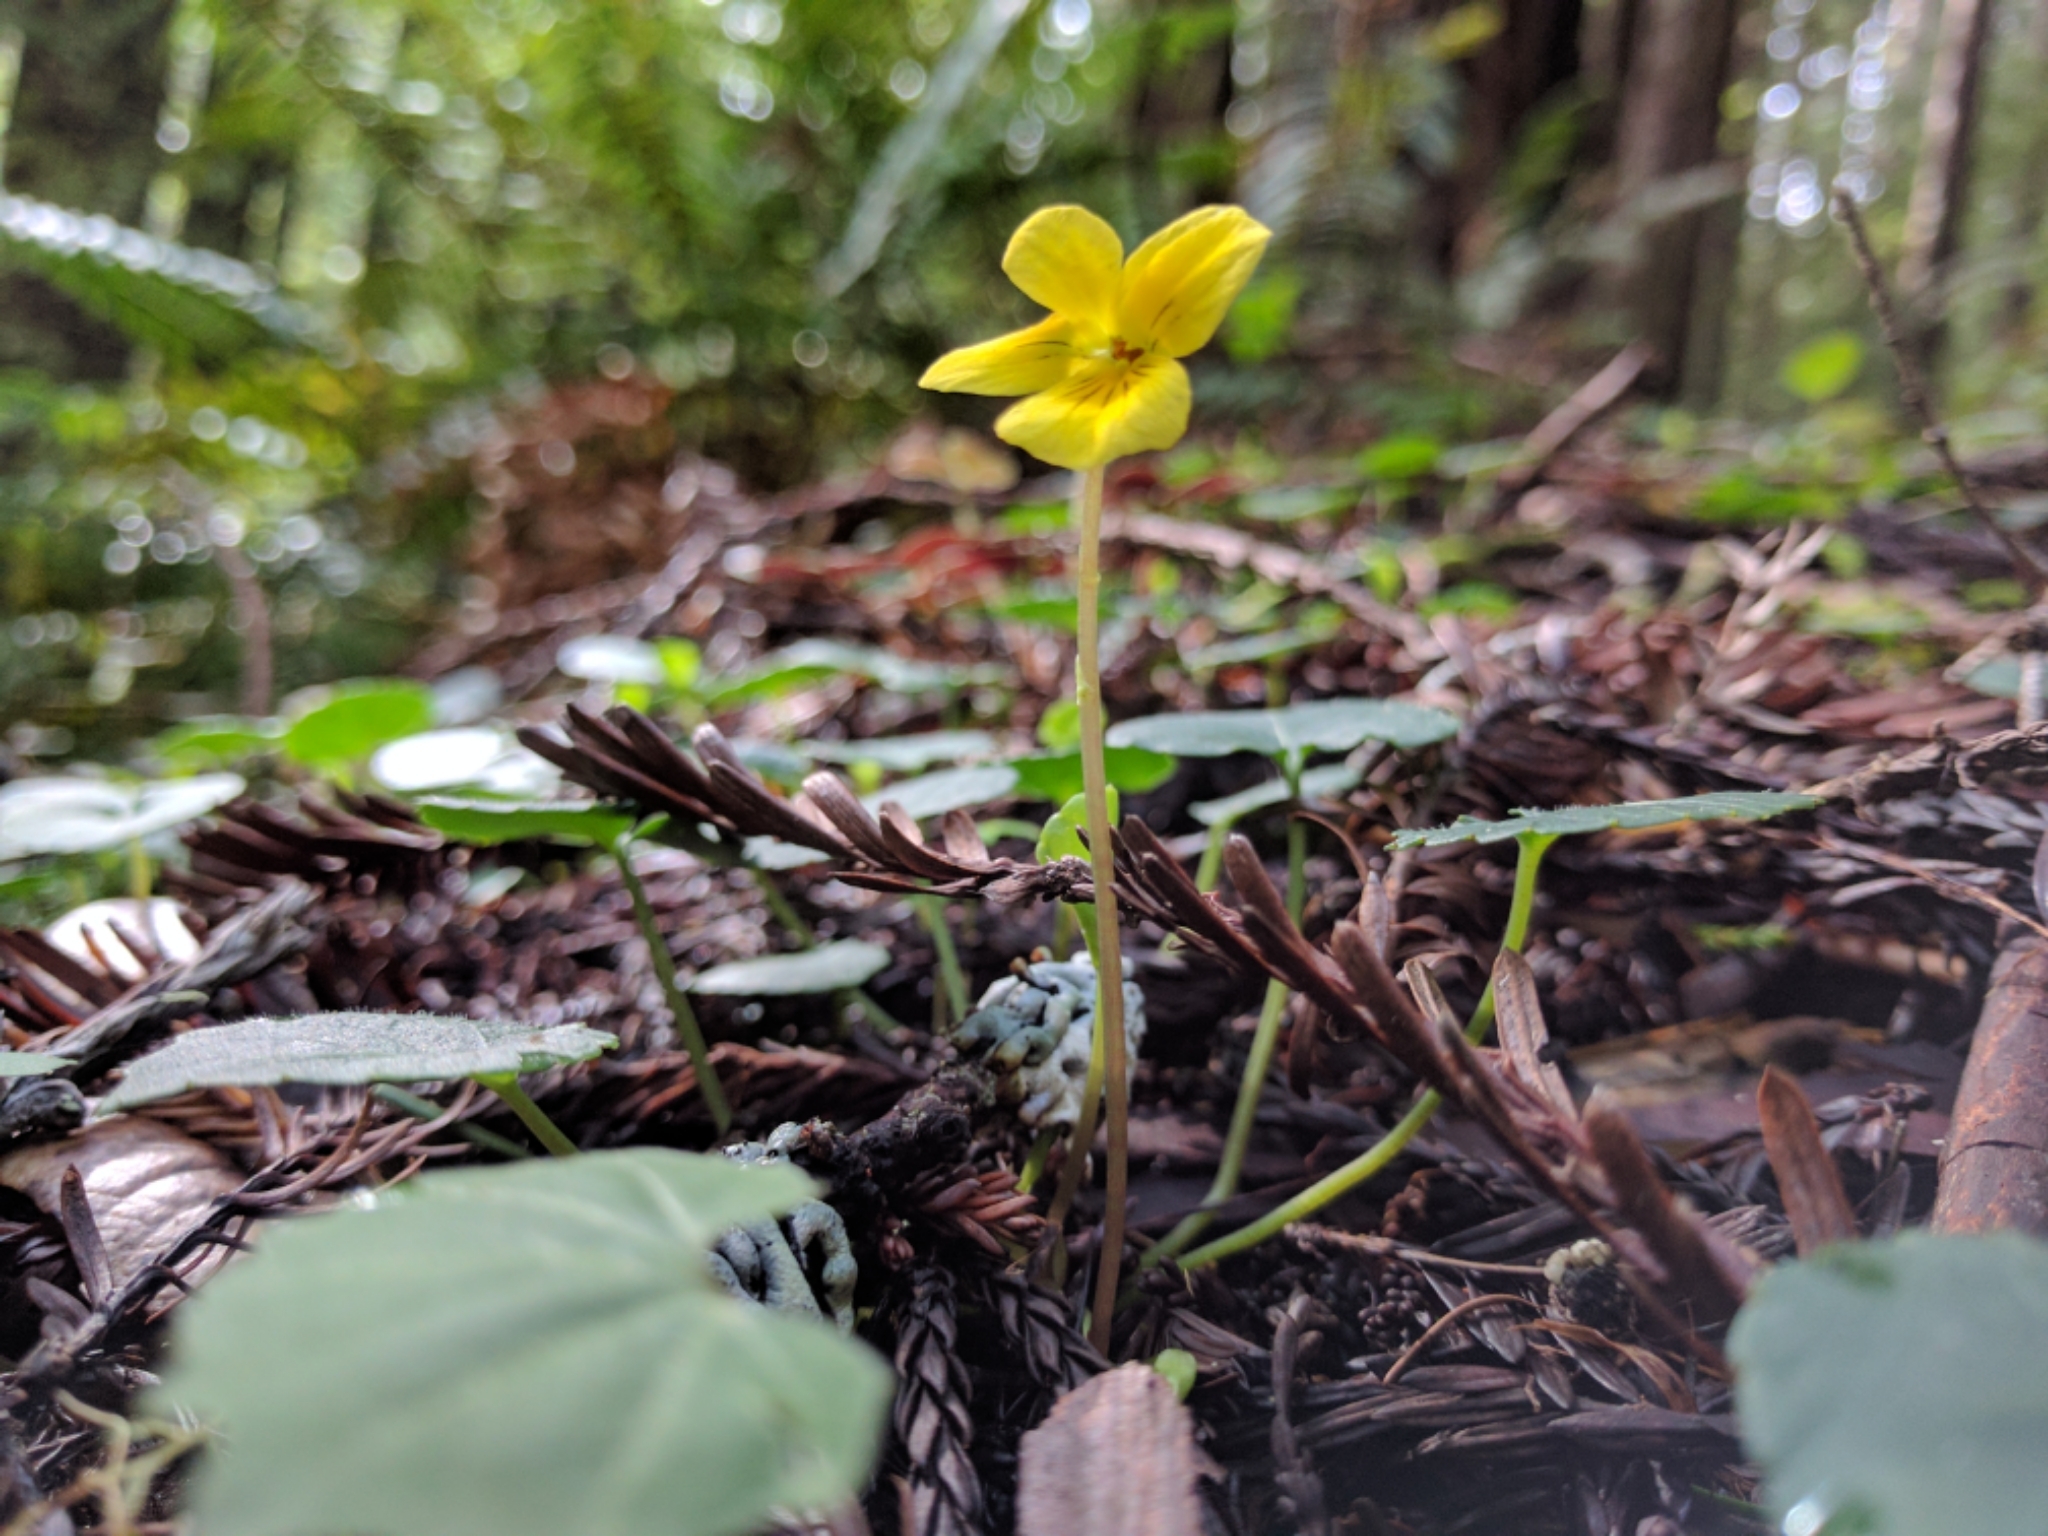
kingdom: Plantae
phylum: Tracheophyta
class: Magnoliopsida
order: Malpighiales
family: Violaceae
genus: Viola
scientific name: Viola sempervirens
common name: Evergreen violet
